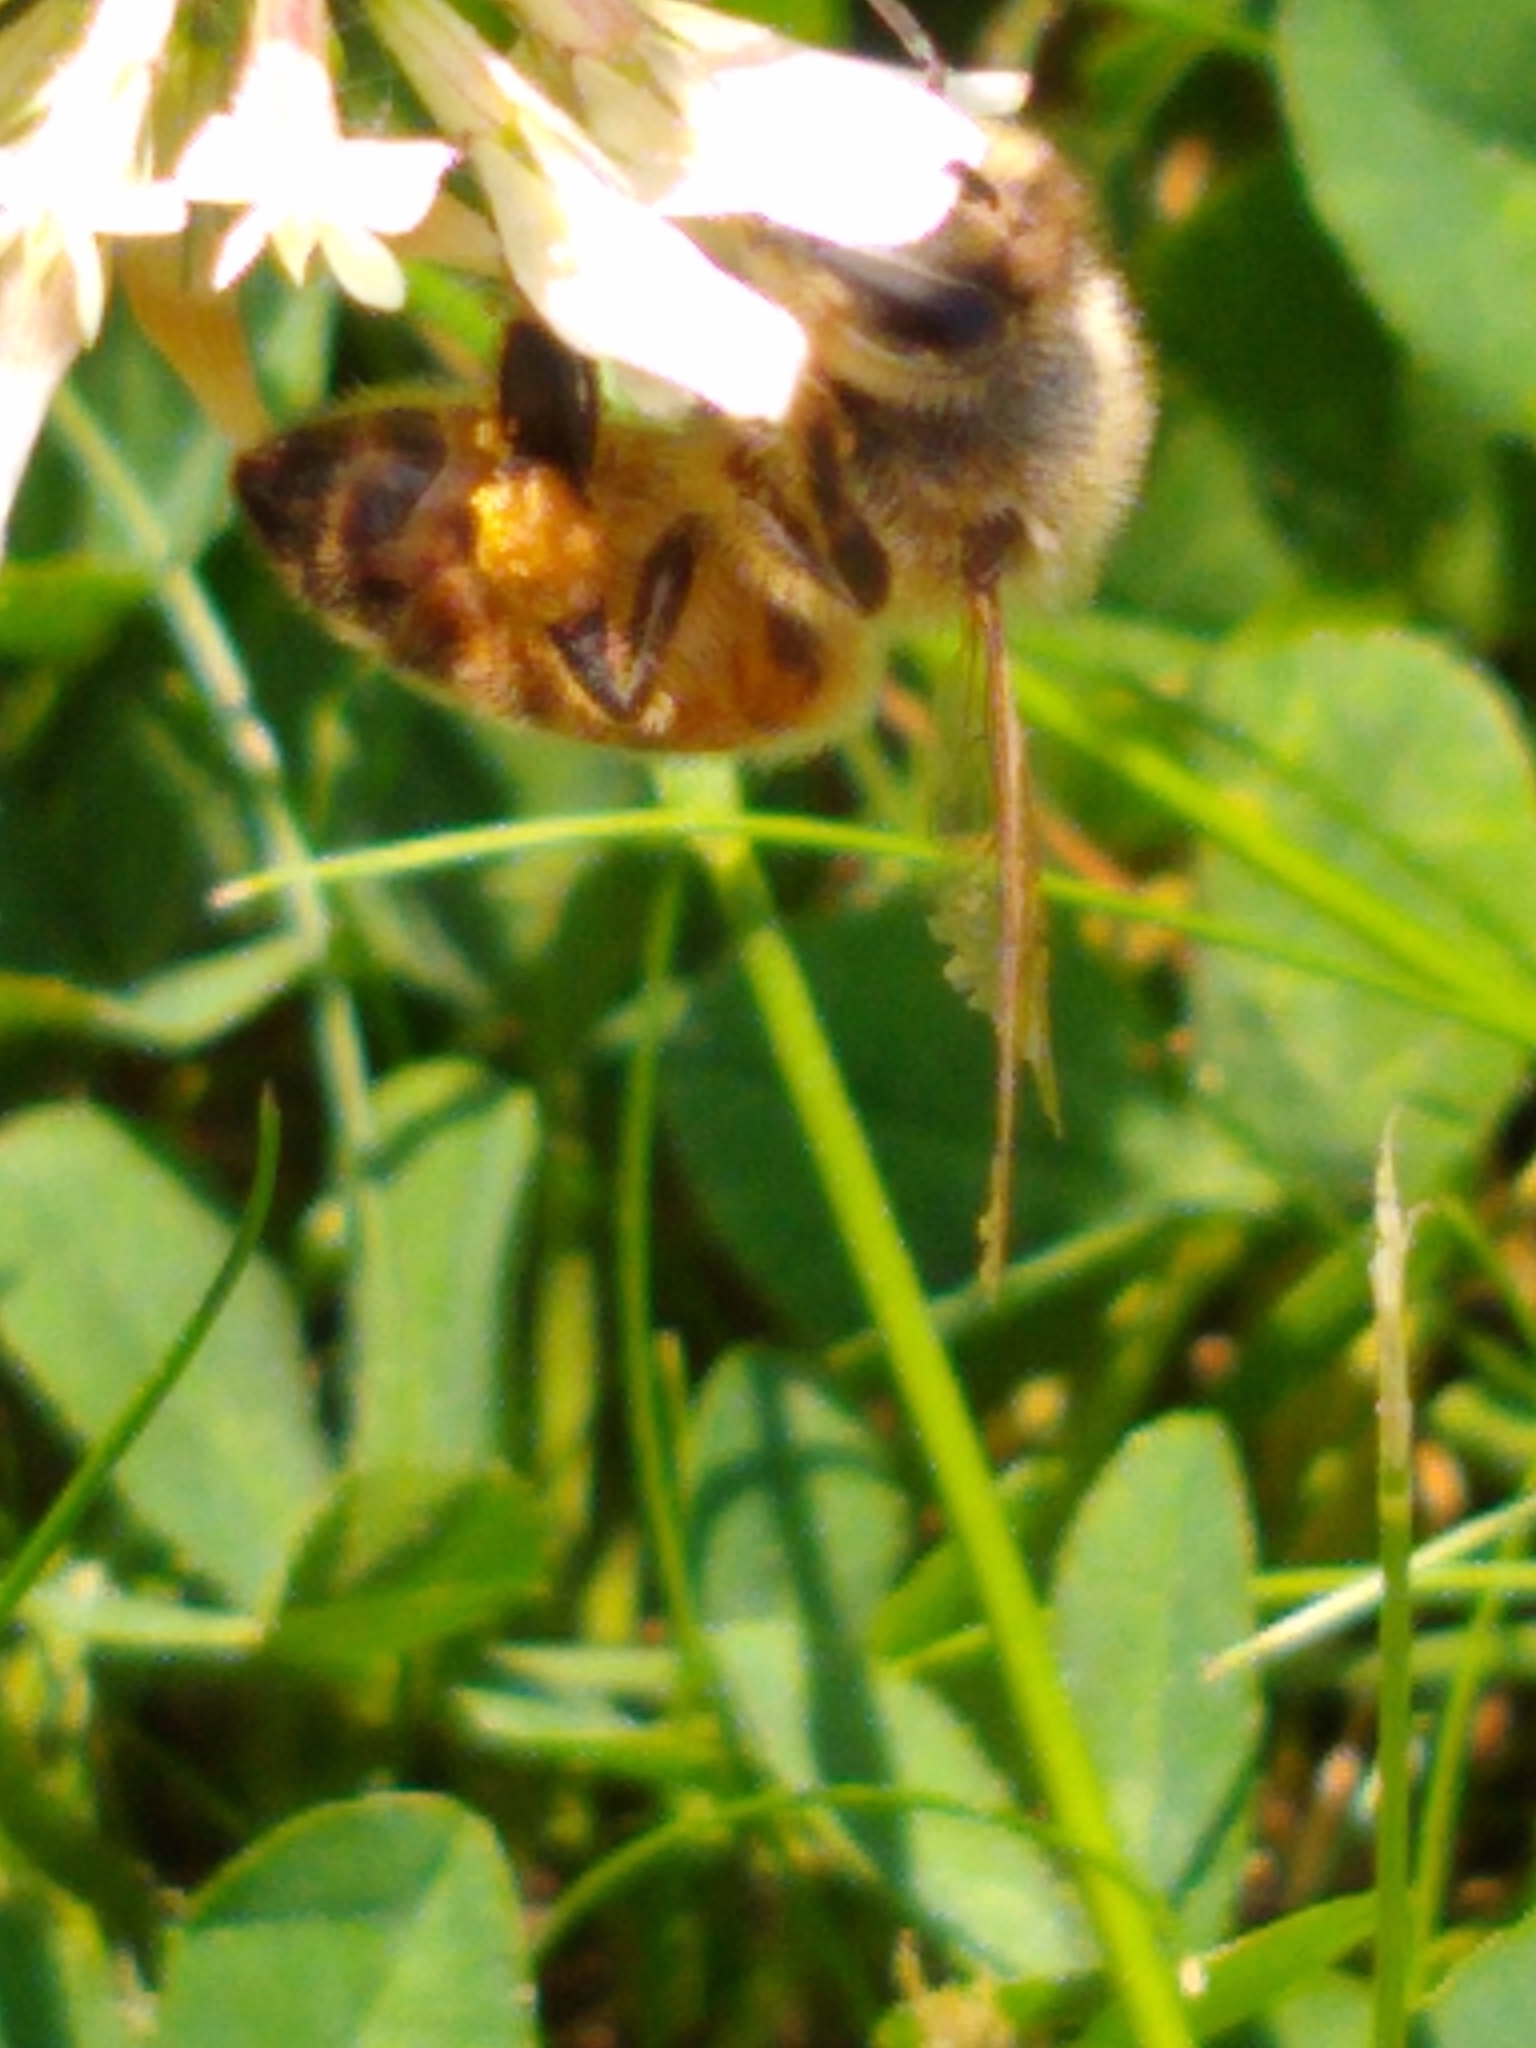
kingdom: Animalia
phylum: Arthropoda
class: Insecta
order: Hymenoptera
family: Apidae
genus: Apis
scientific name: Apis mellifera
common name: Honey bee
